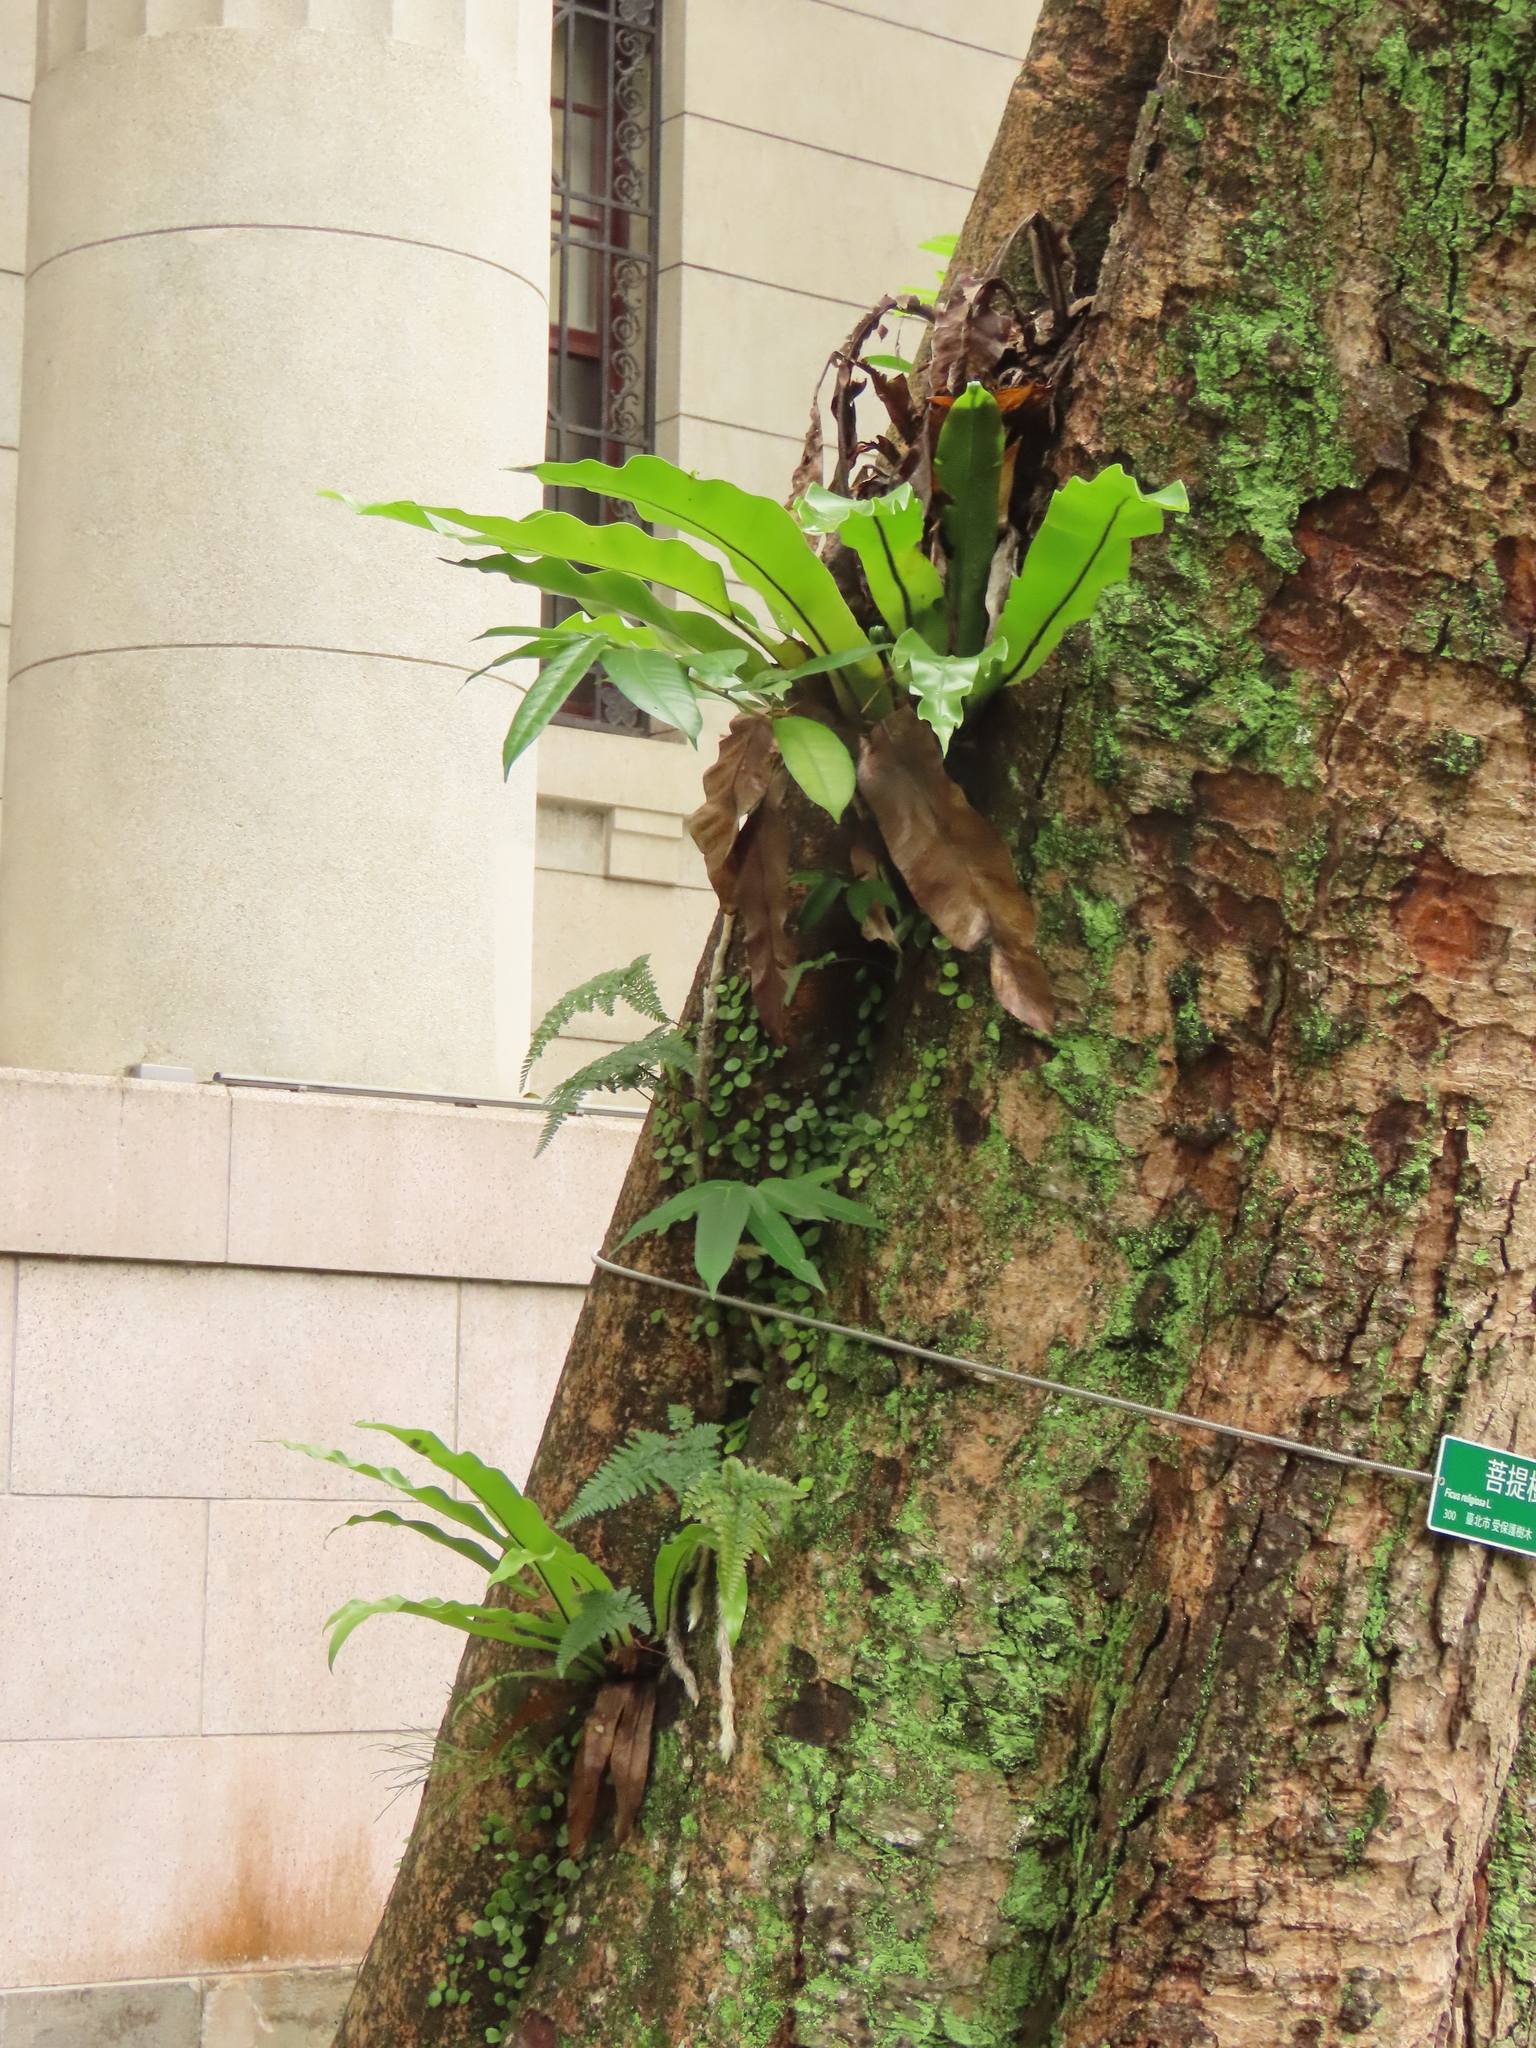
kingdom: Plantae
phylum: Tracheophyta
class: Polypodiopsida
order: Polypodiales
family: Aspleniaceae
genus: Asplenium
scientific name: Asplenium nidus
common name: Bird's-nest fern
